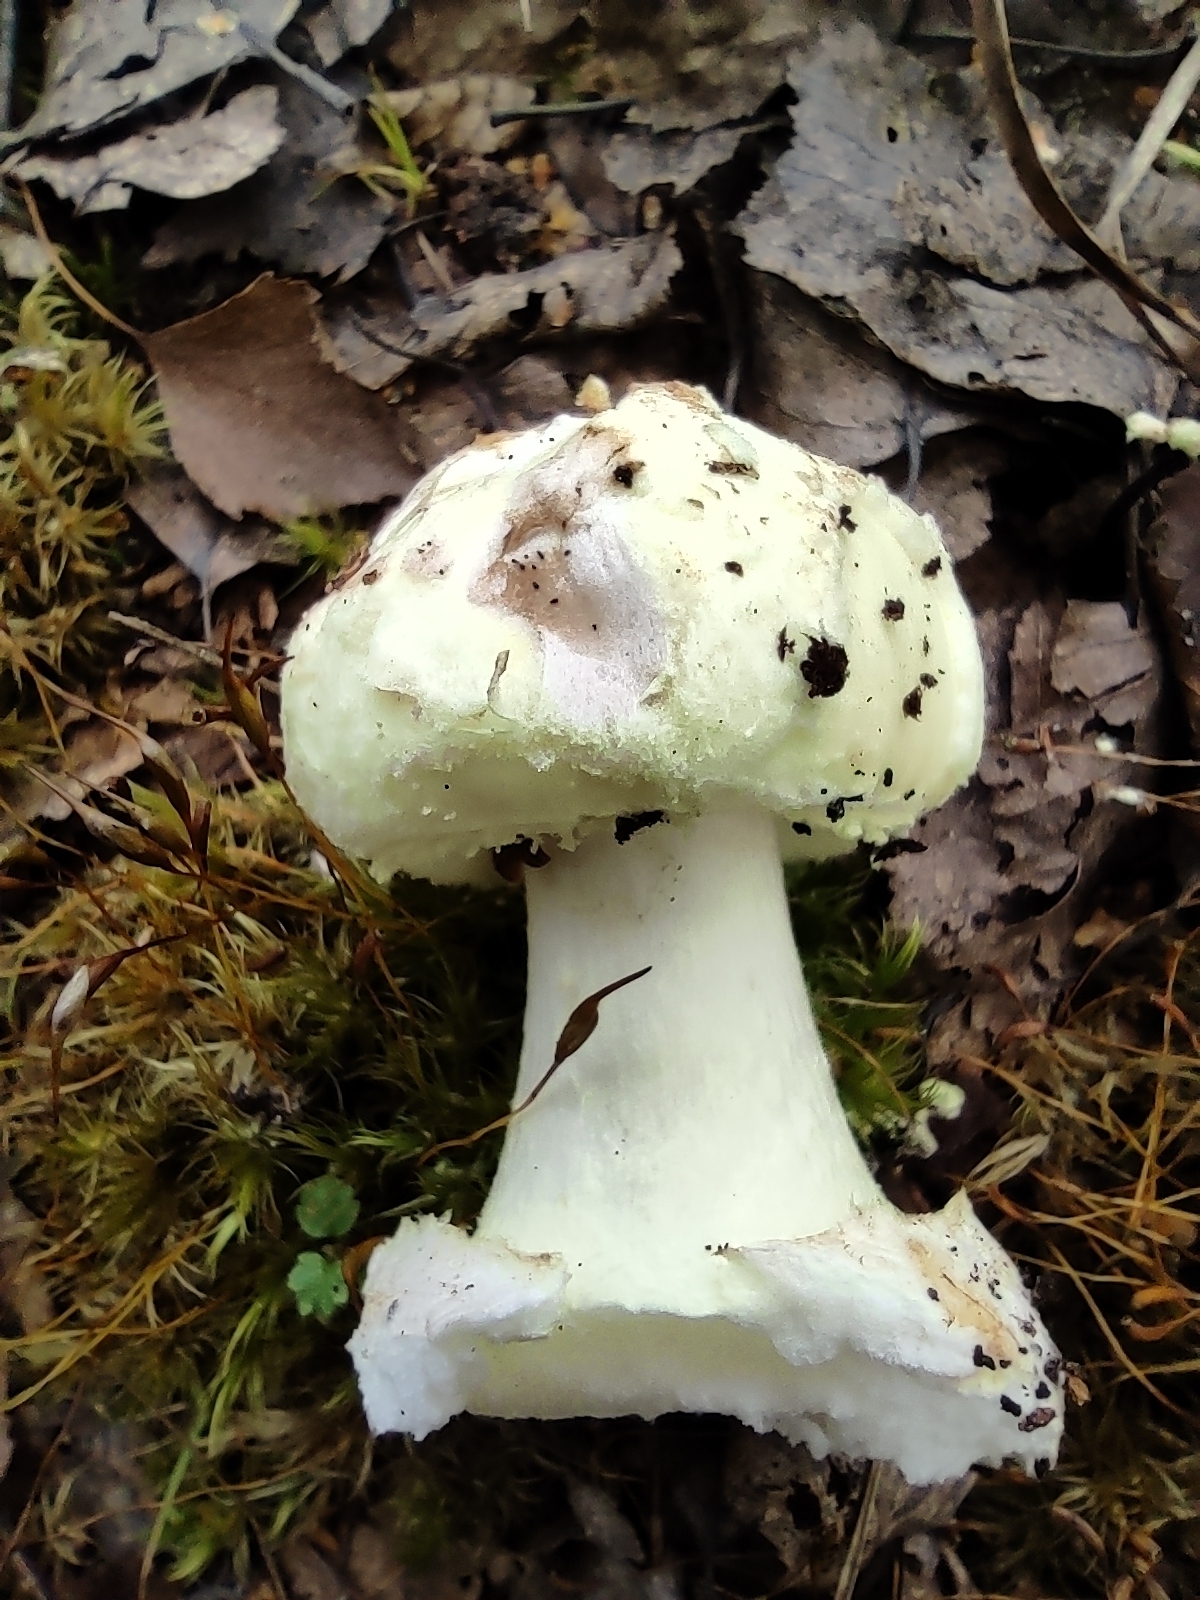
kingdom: Fungi
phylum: Basidiomycota
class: Agaricomycetes
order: Agaricales
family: Amanitaceae
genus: Amanita
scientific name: Amanita citrina
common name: False death-cap
